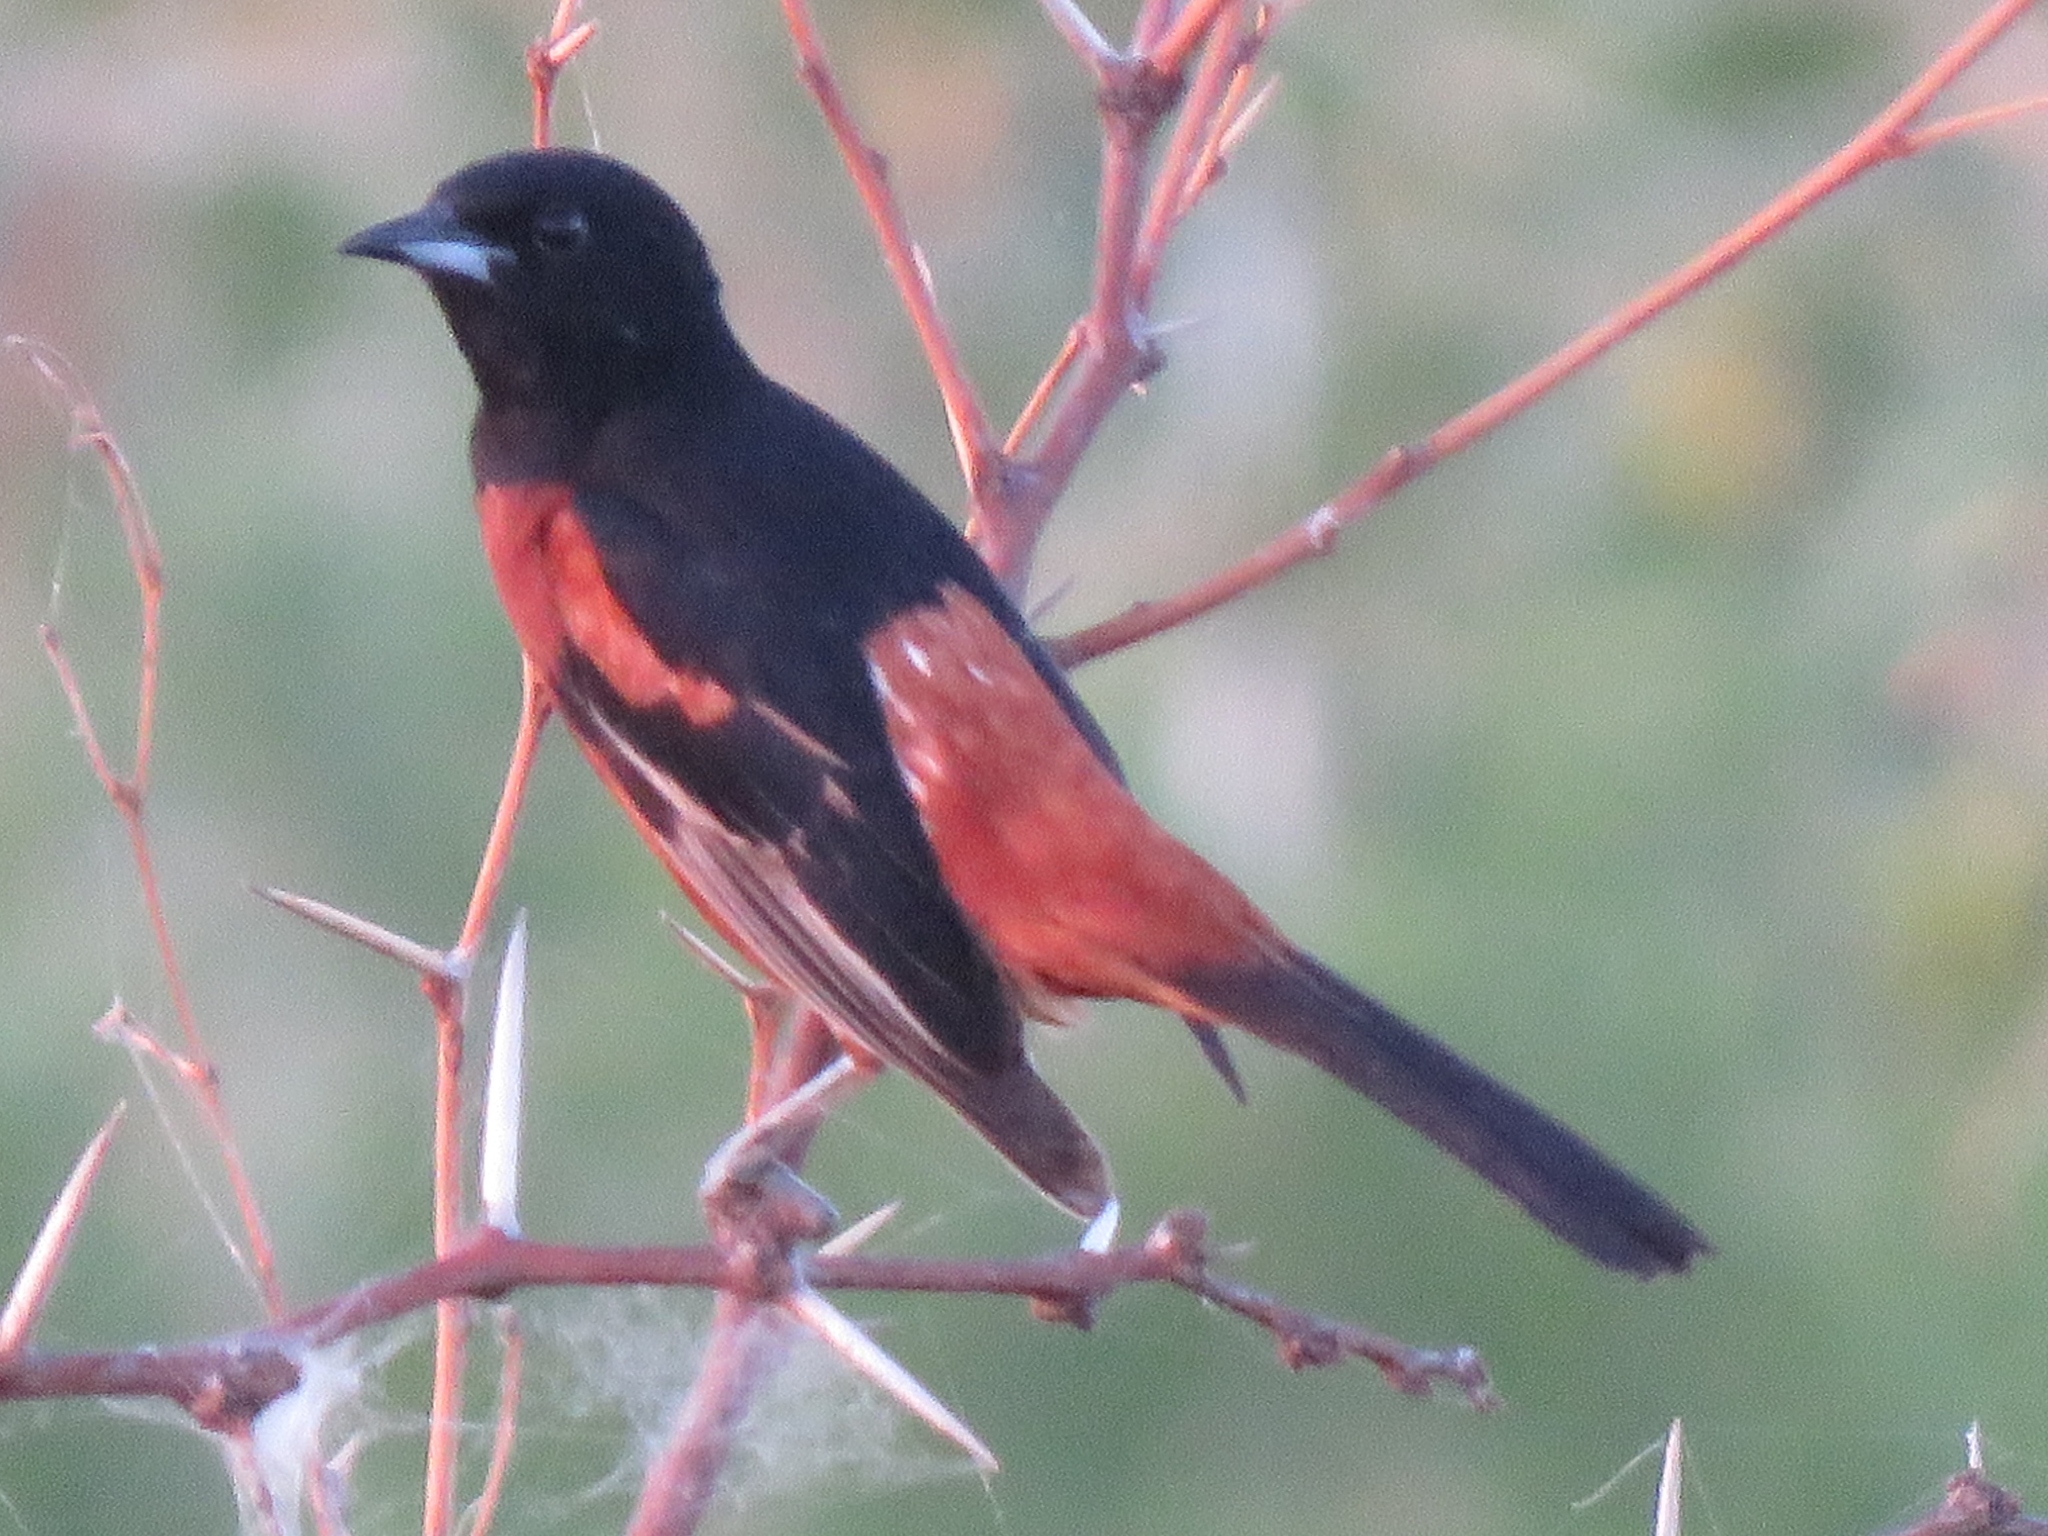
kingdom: Animalia
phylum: Chordata
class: Aves
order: Passeriformes
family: Icteridae
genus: Icterus
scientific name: Icterus spurius
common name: Orchard oriole
